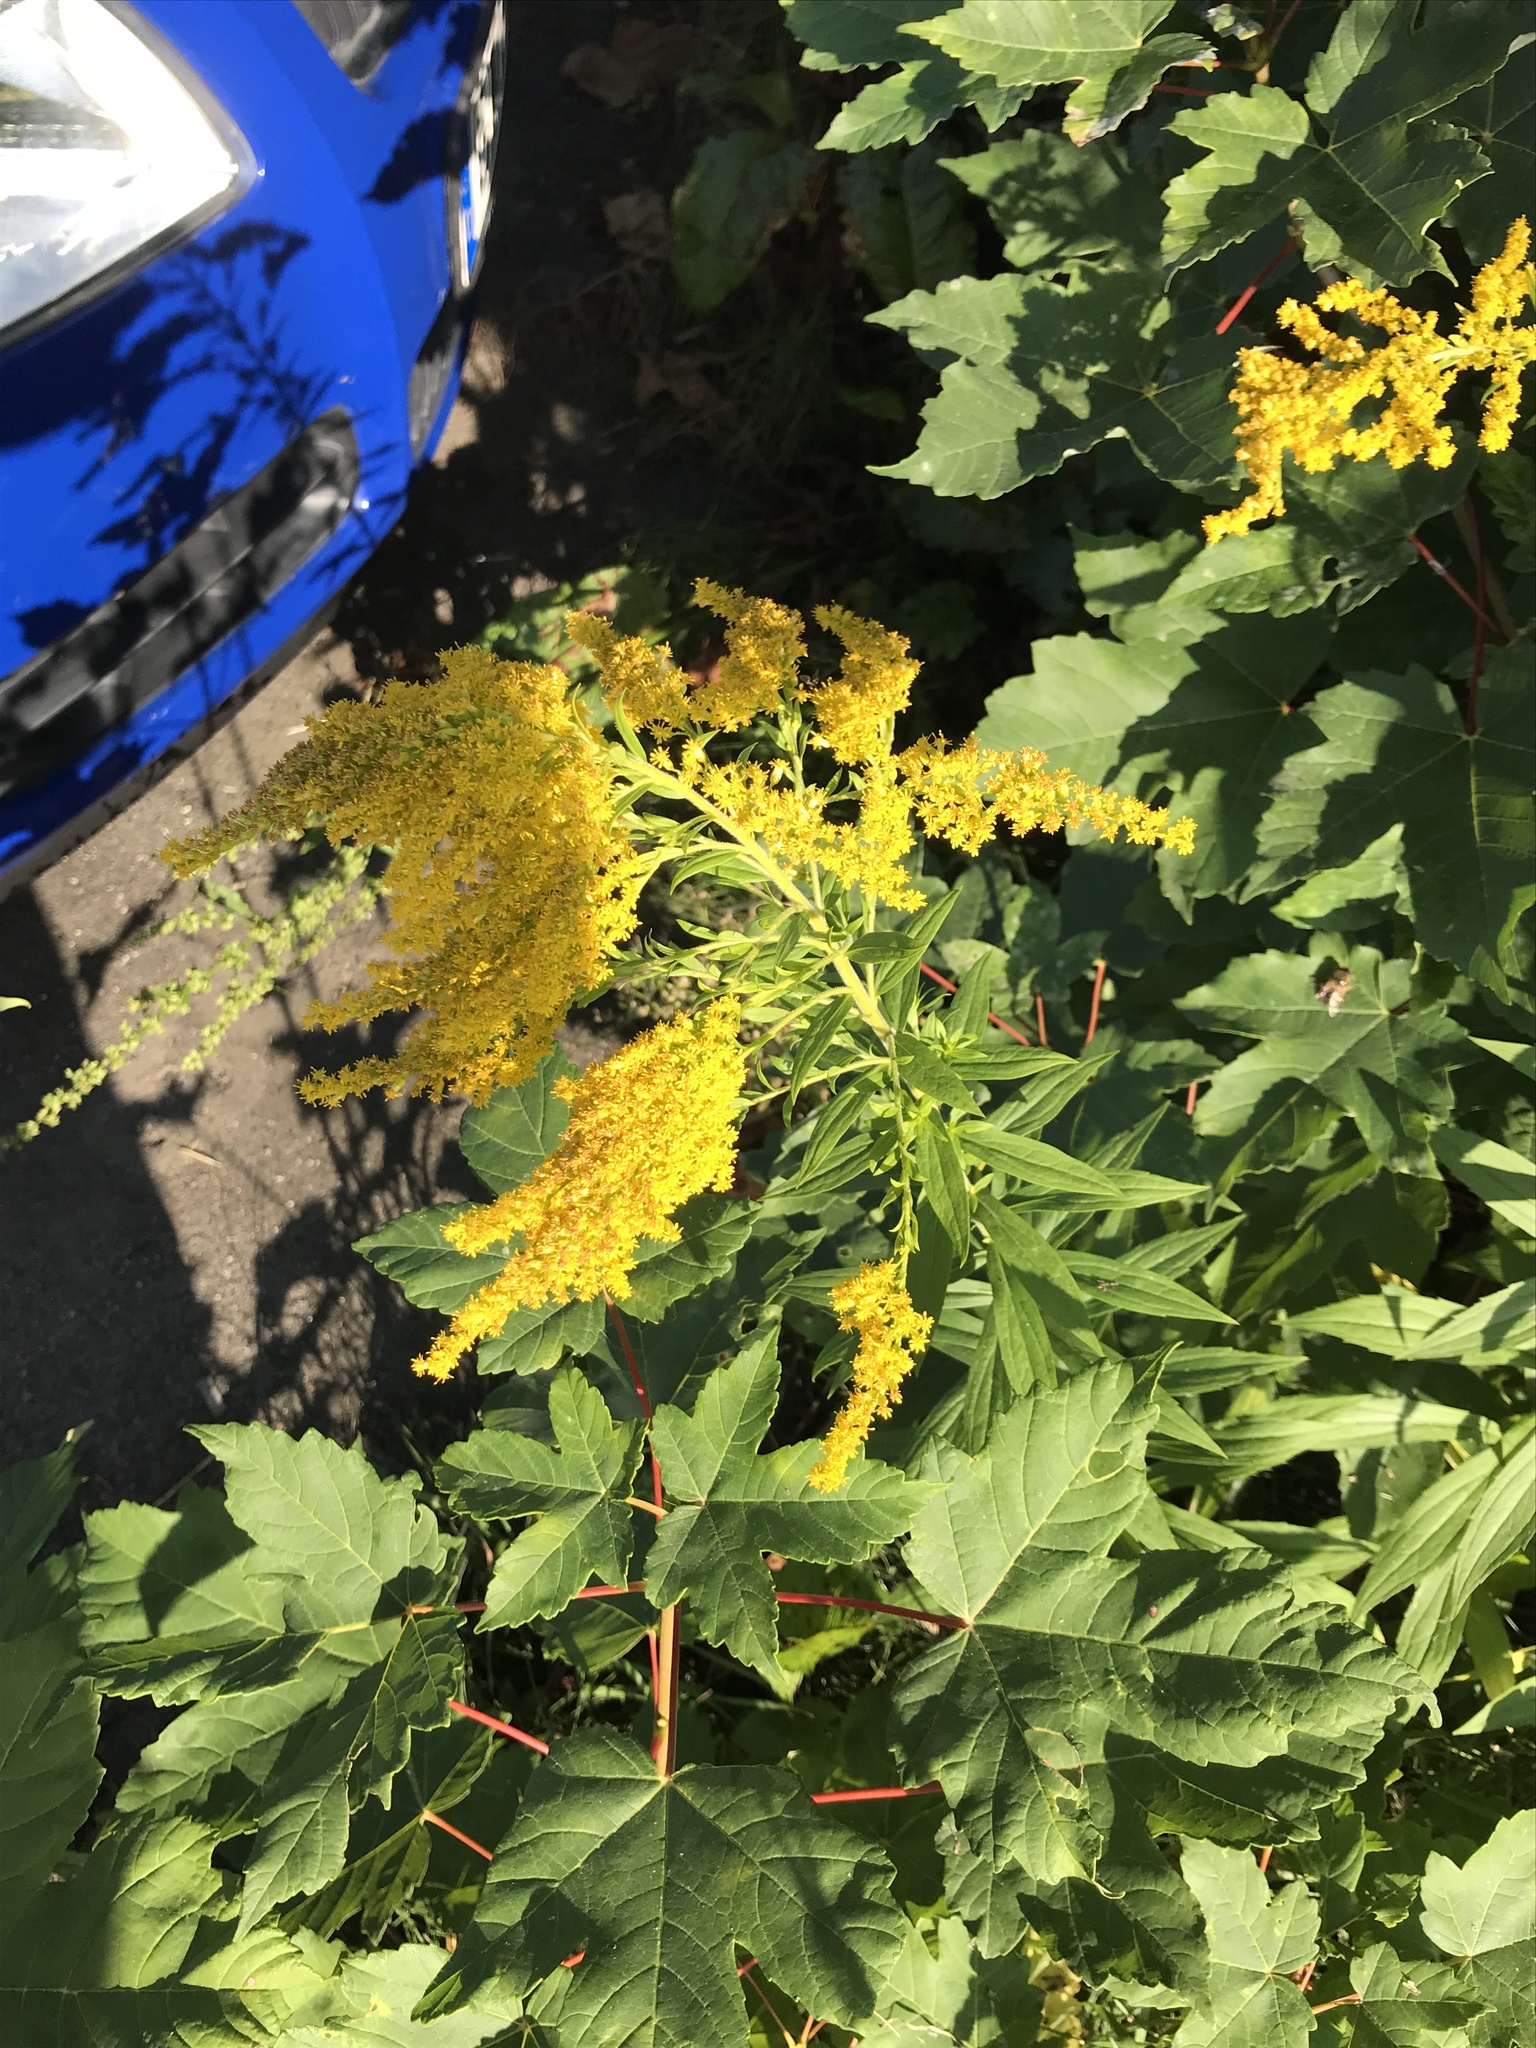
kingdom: Plantae
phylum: Tracheophyta
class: Magnoliopsida
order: Asterales
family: Asteraceae
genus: Solidago
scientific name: Solidago canadensis
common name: Canada goldenrod
